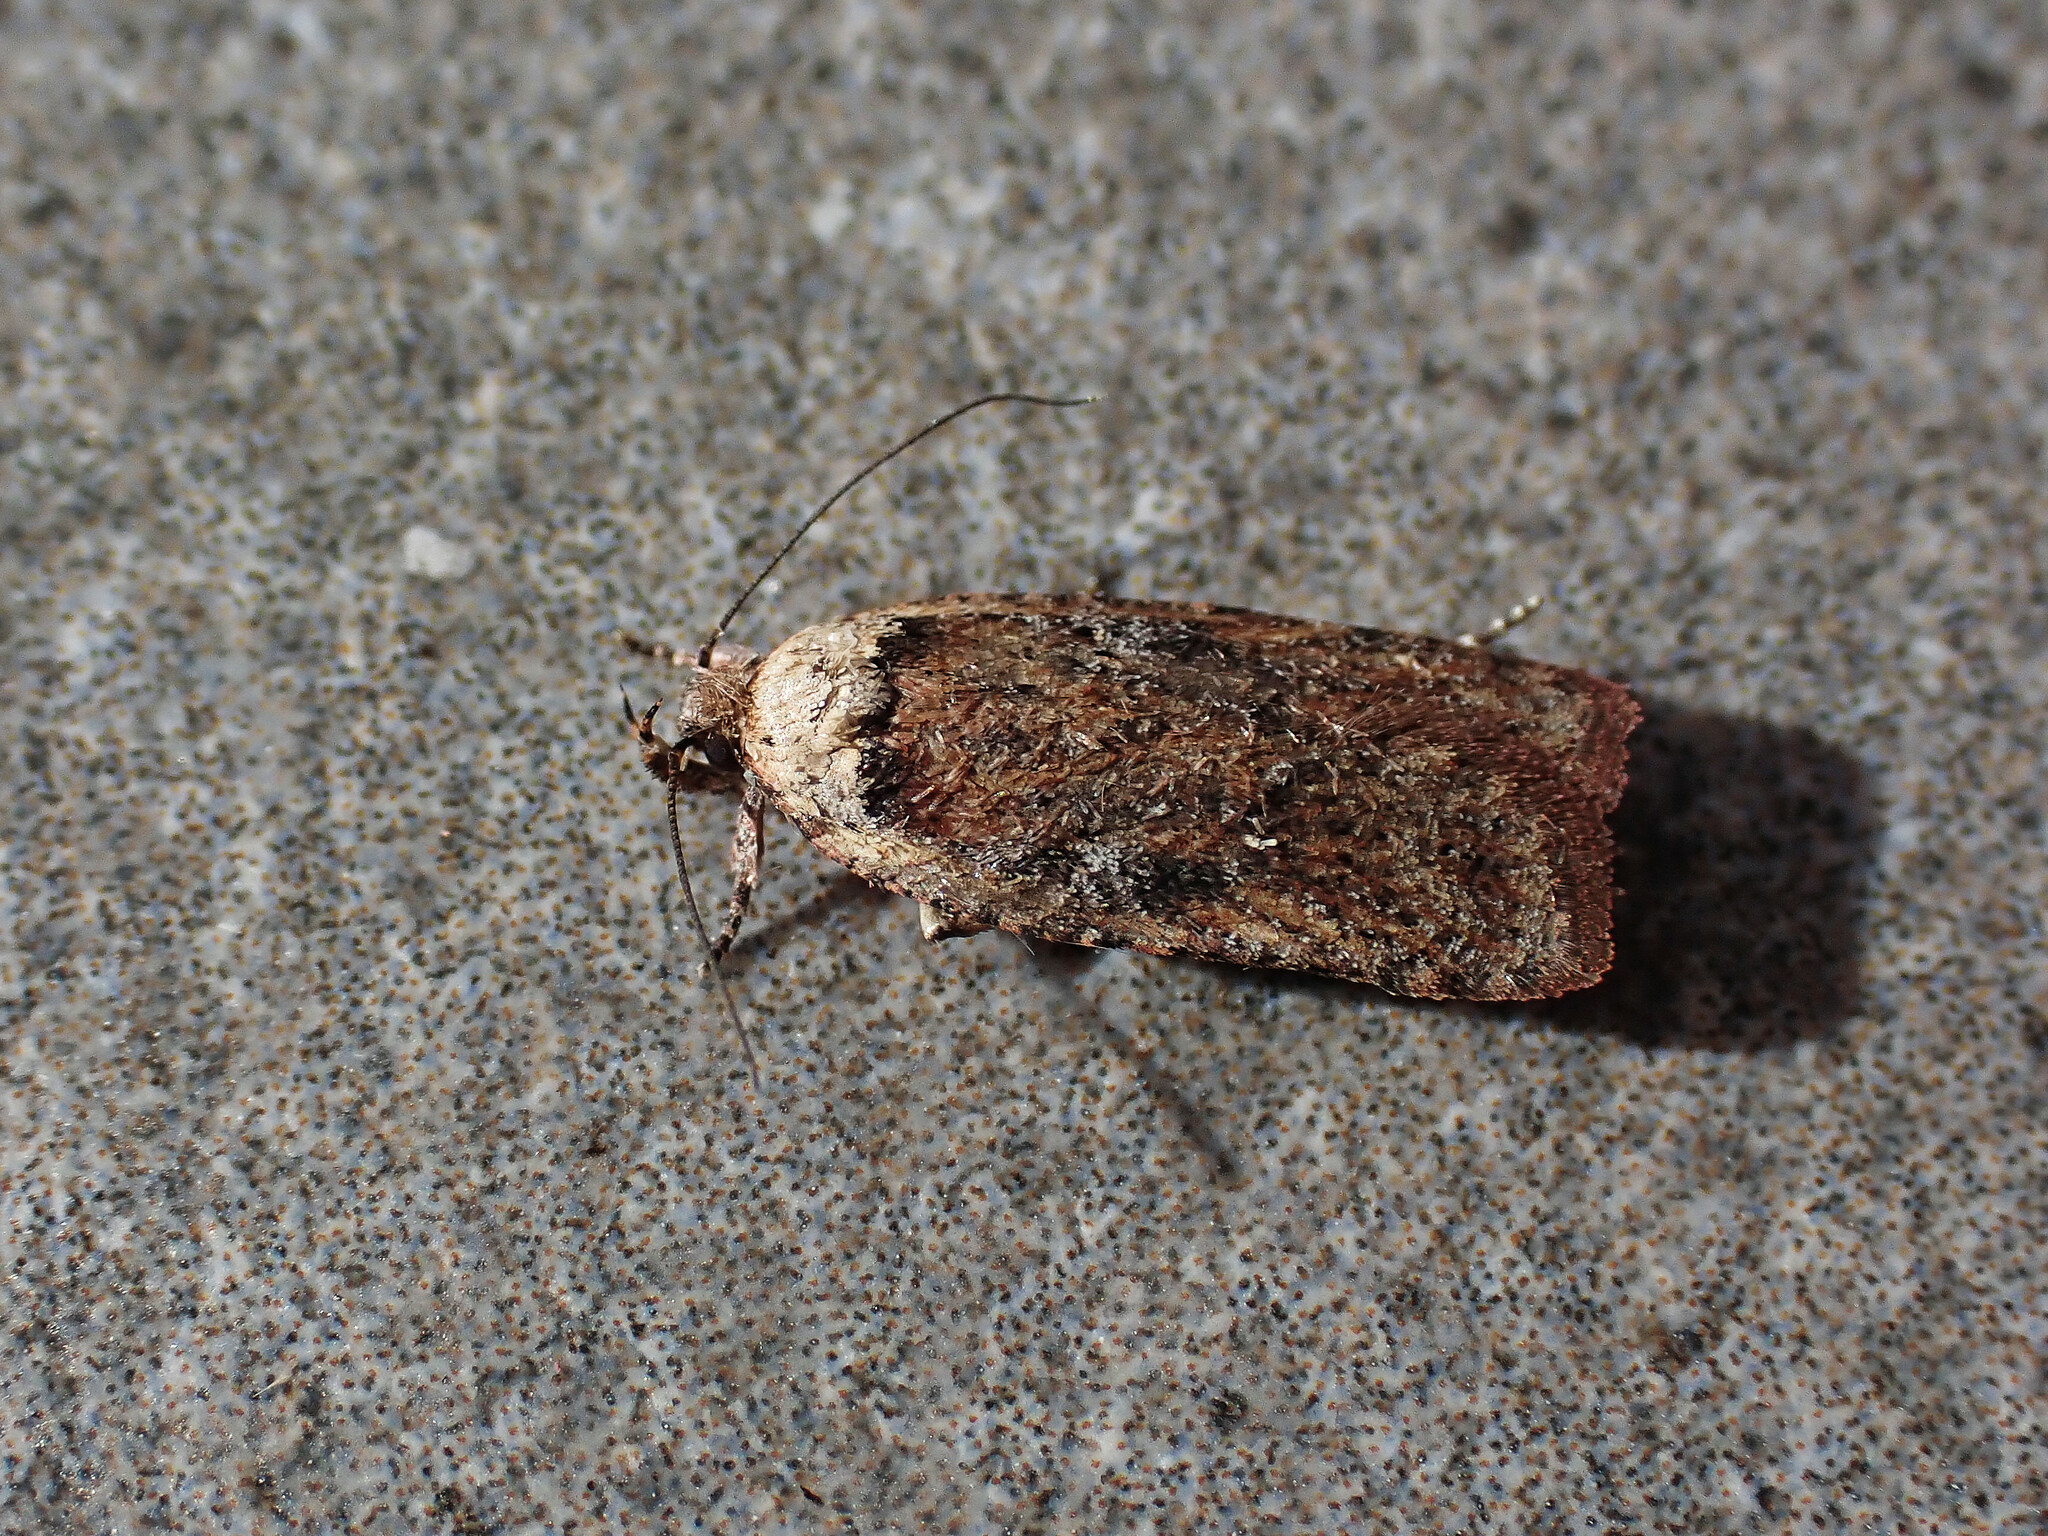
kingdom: Animalia
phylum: Arthropoda
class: Insecta
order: Lepidoptera
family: Depressariidae
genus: Agonopterix
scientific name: Agonopterix perezi
